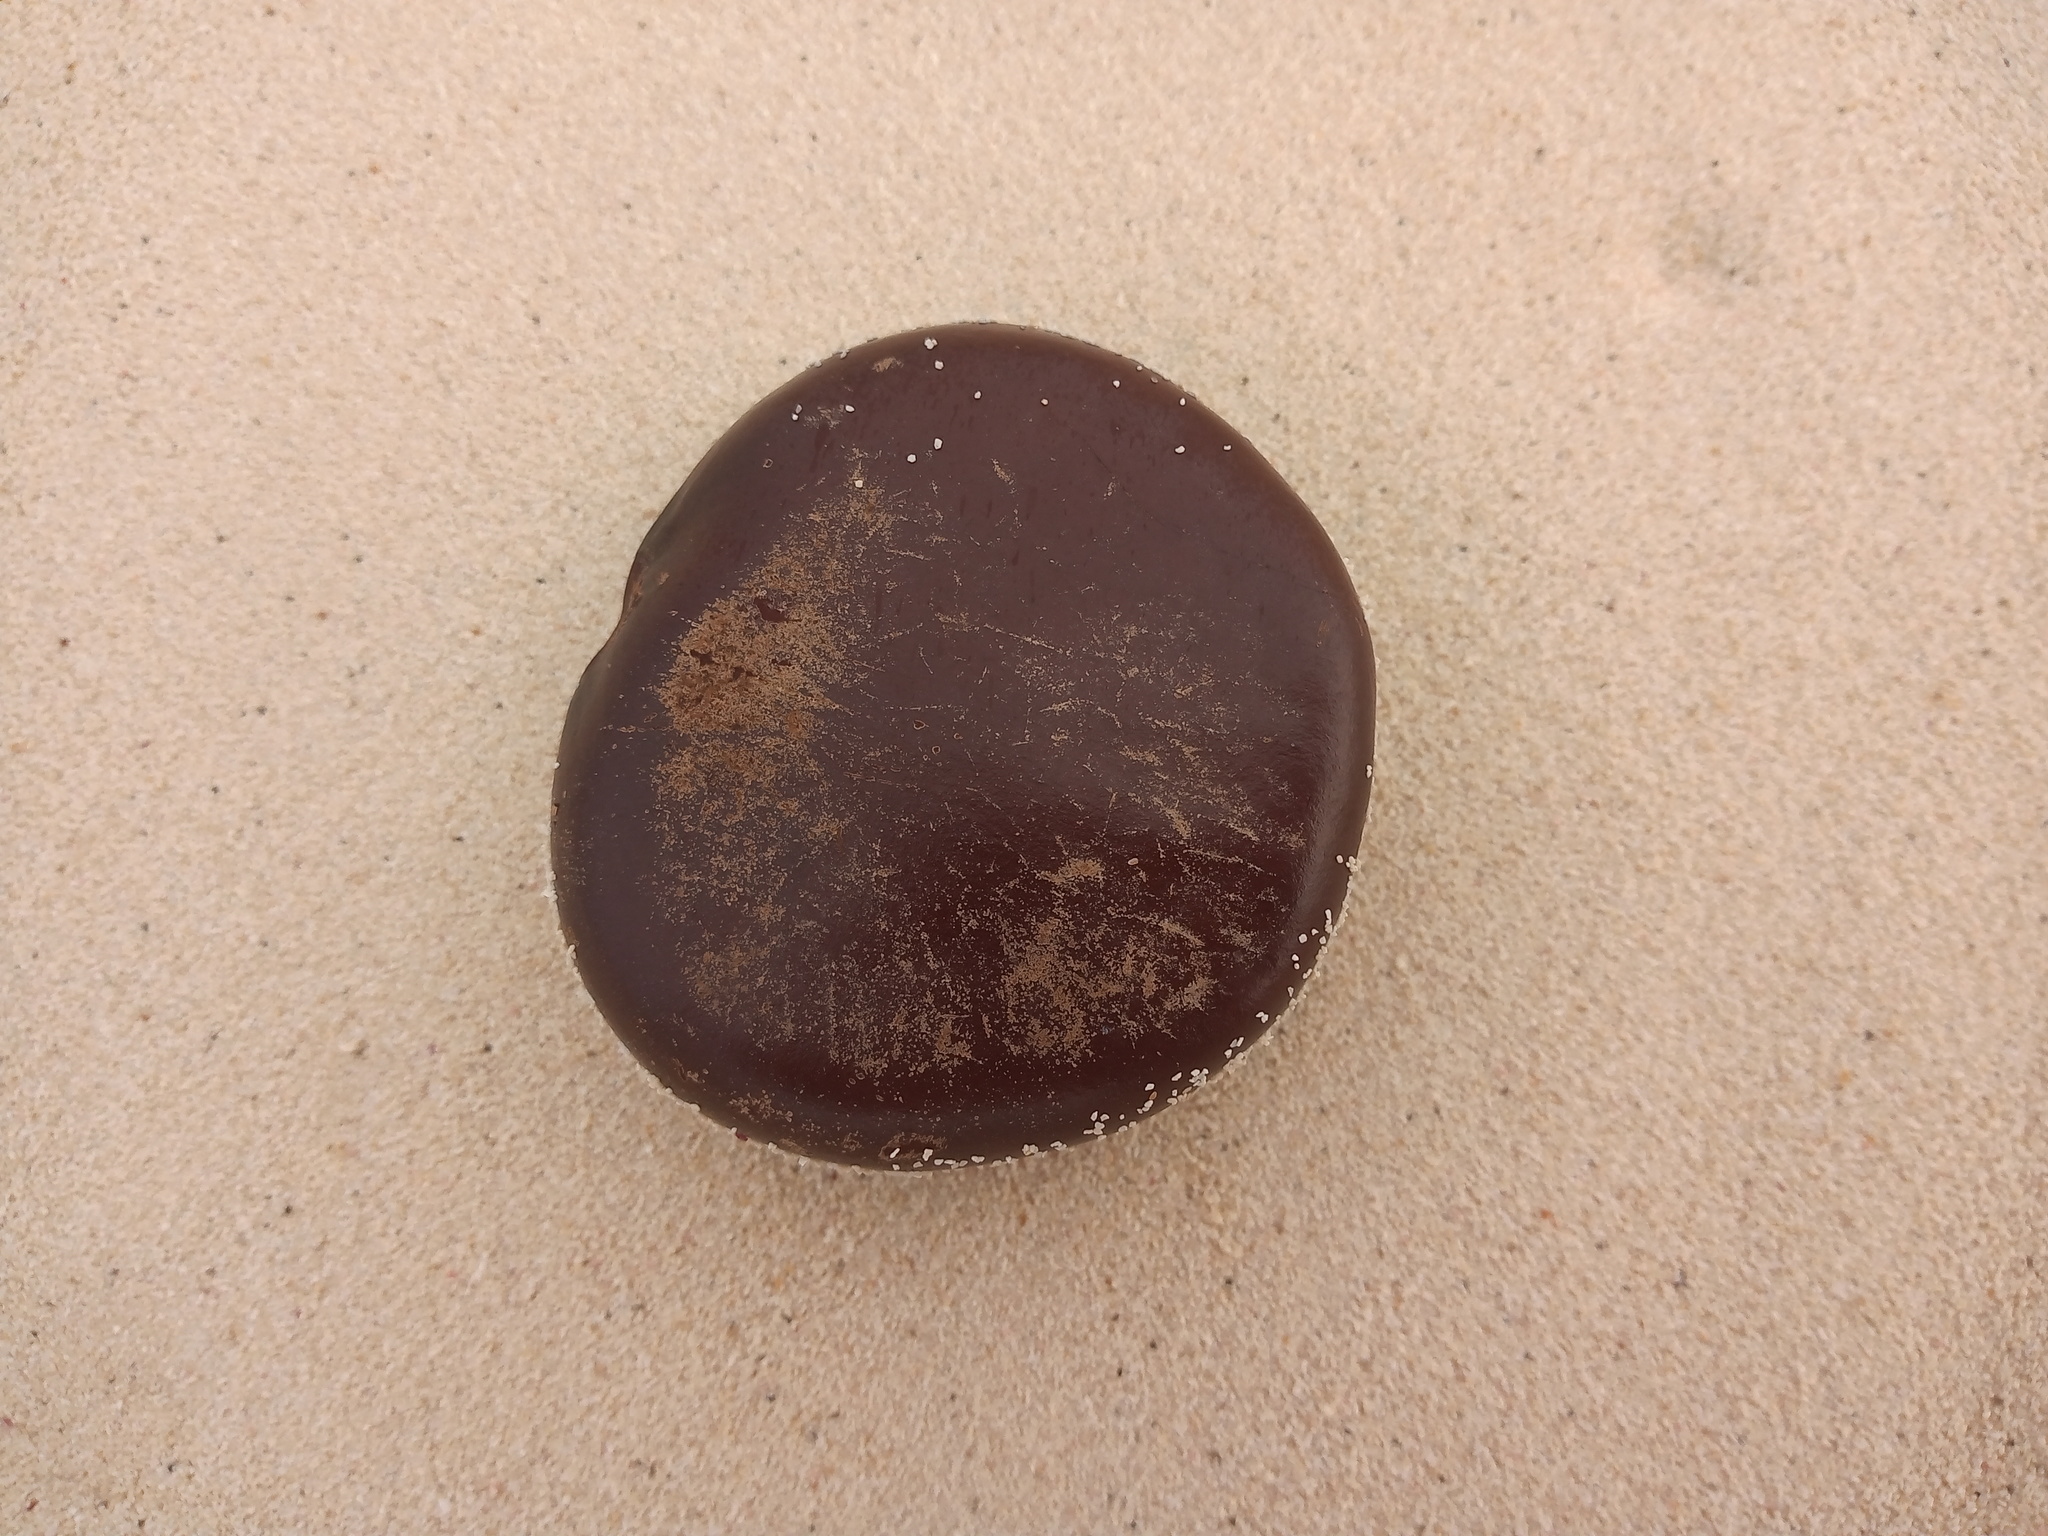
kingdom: Plantae
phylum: Tracheophyta
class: Magnoliopsida
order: Fabales
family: Fabaceae
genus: Entada
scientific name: Entada gigas
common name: Nicker-bean
